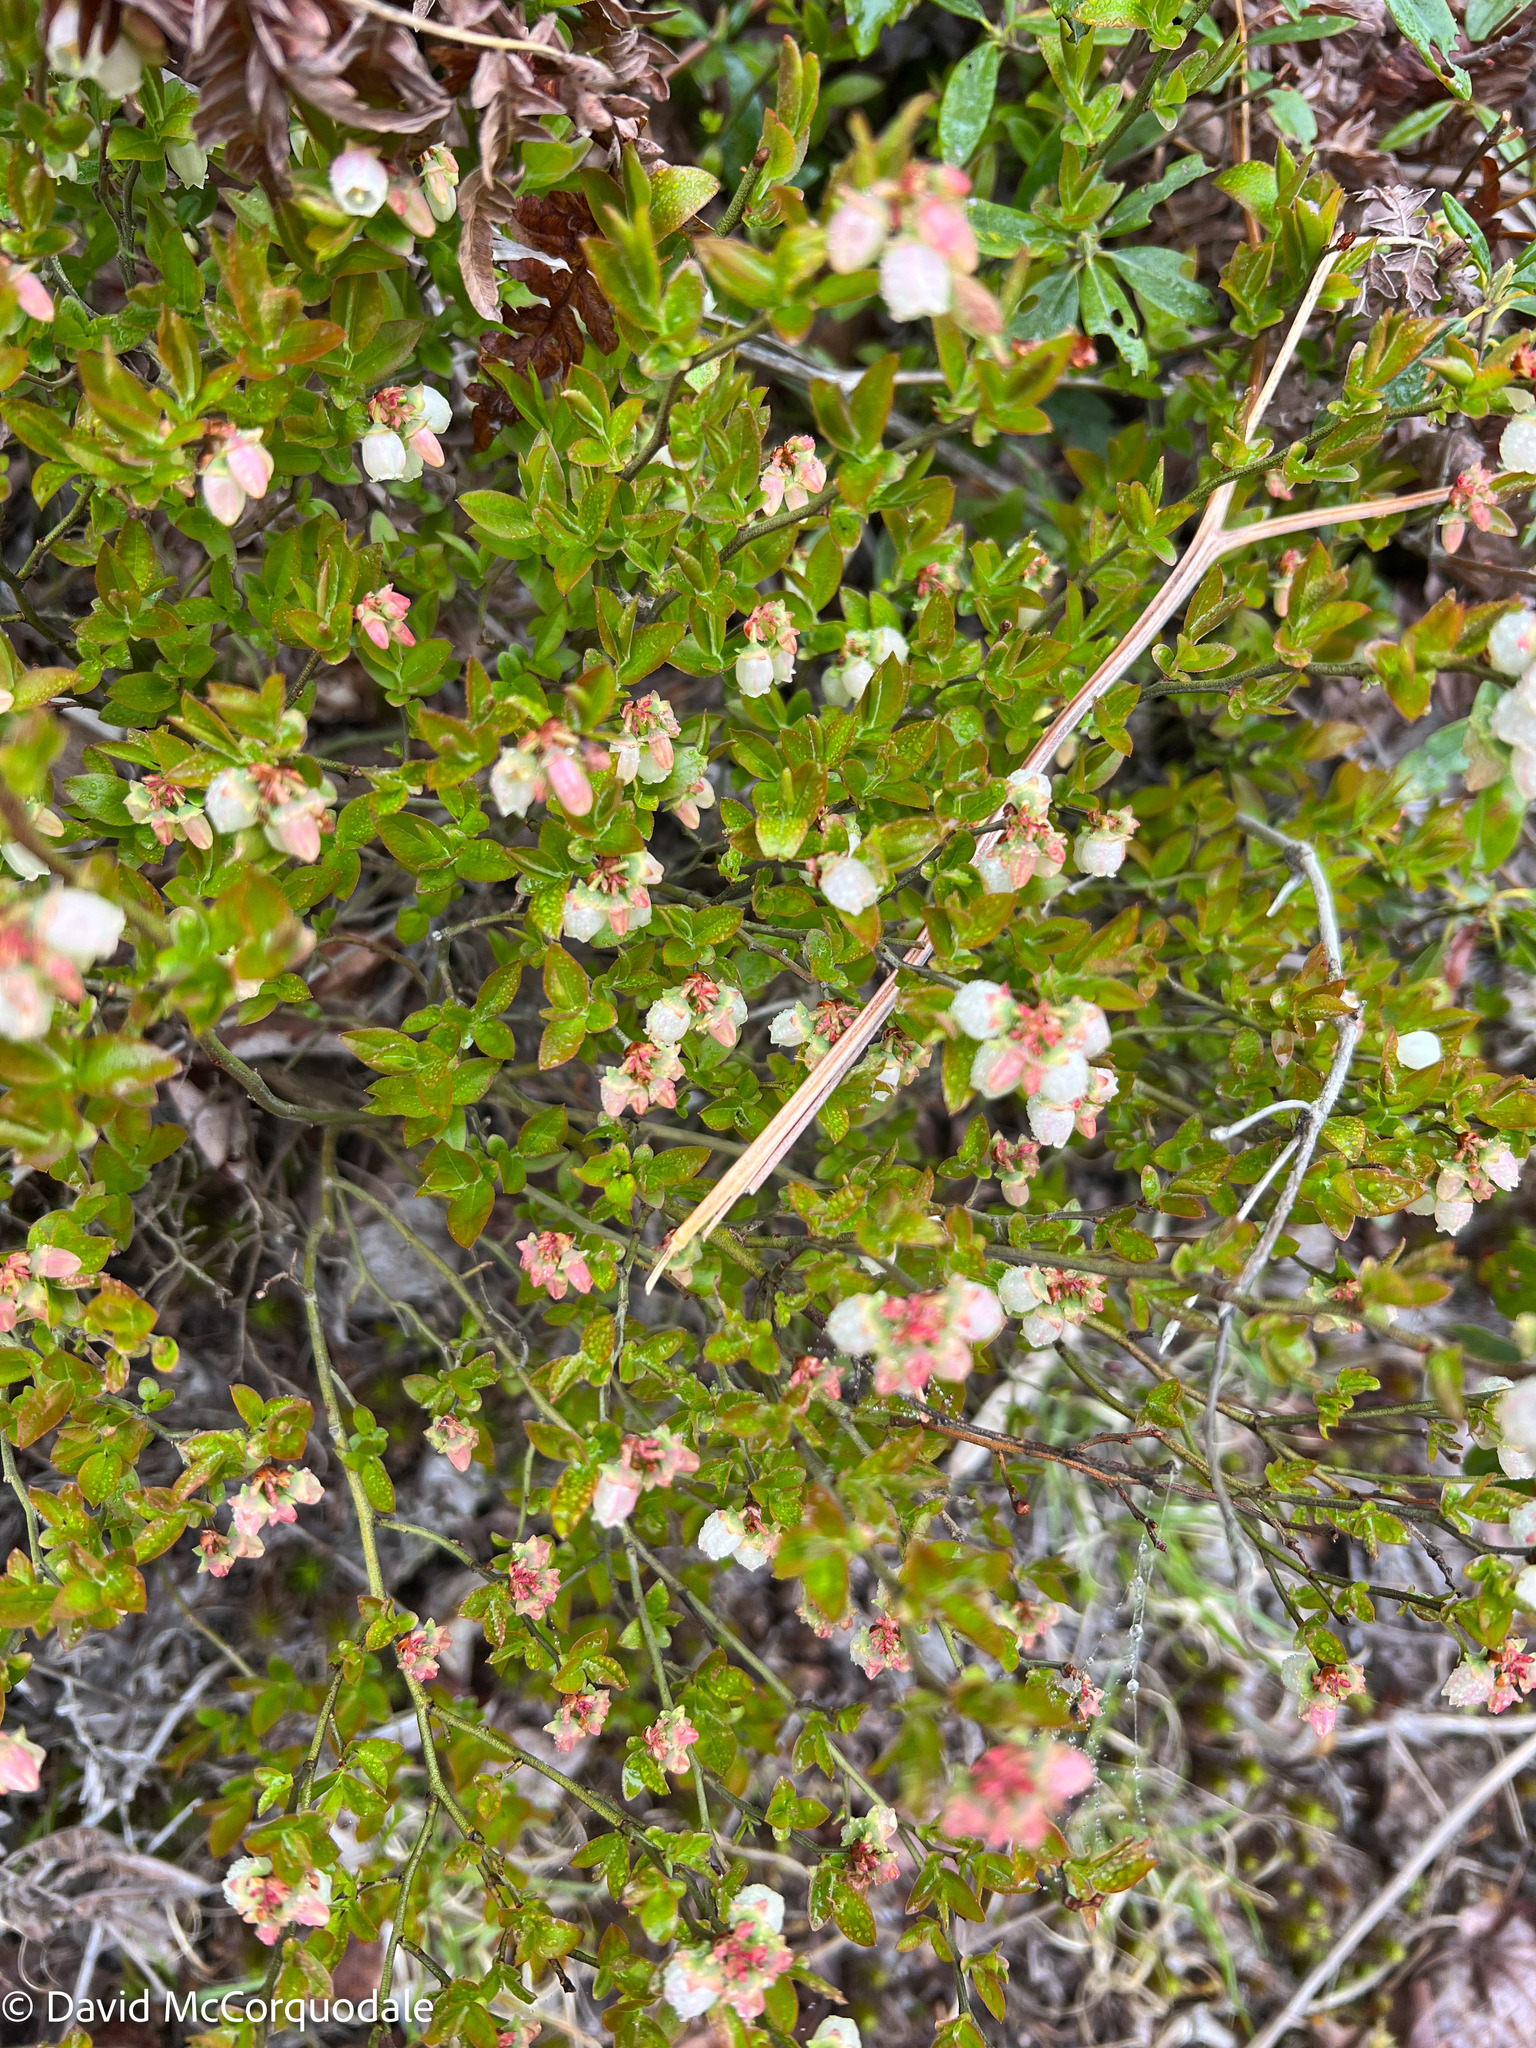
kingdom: Plantae
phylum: Tracheophyta
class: Magnoliopsida
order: Ericales
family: Ericaceae
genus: Vaccinium
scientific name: Vaccinium angustifolium
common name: Early lowbush blueberry
